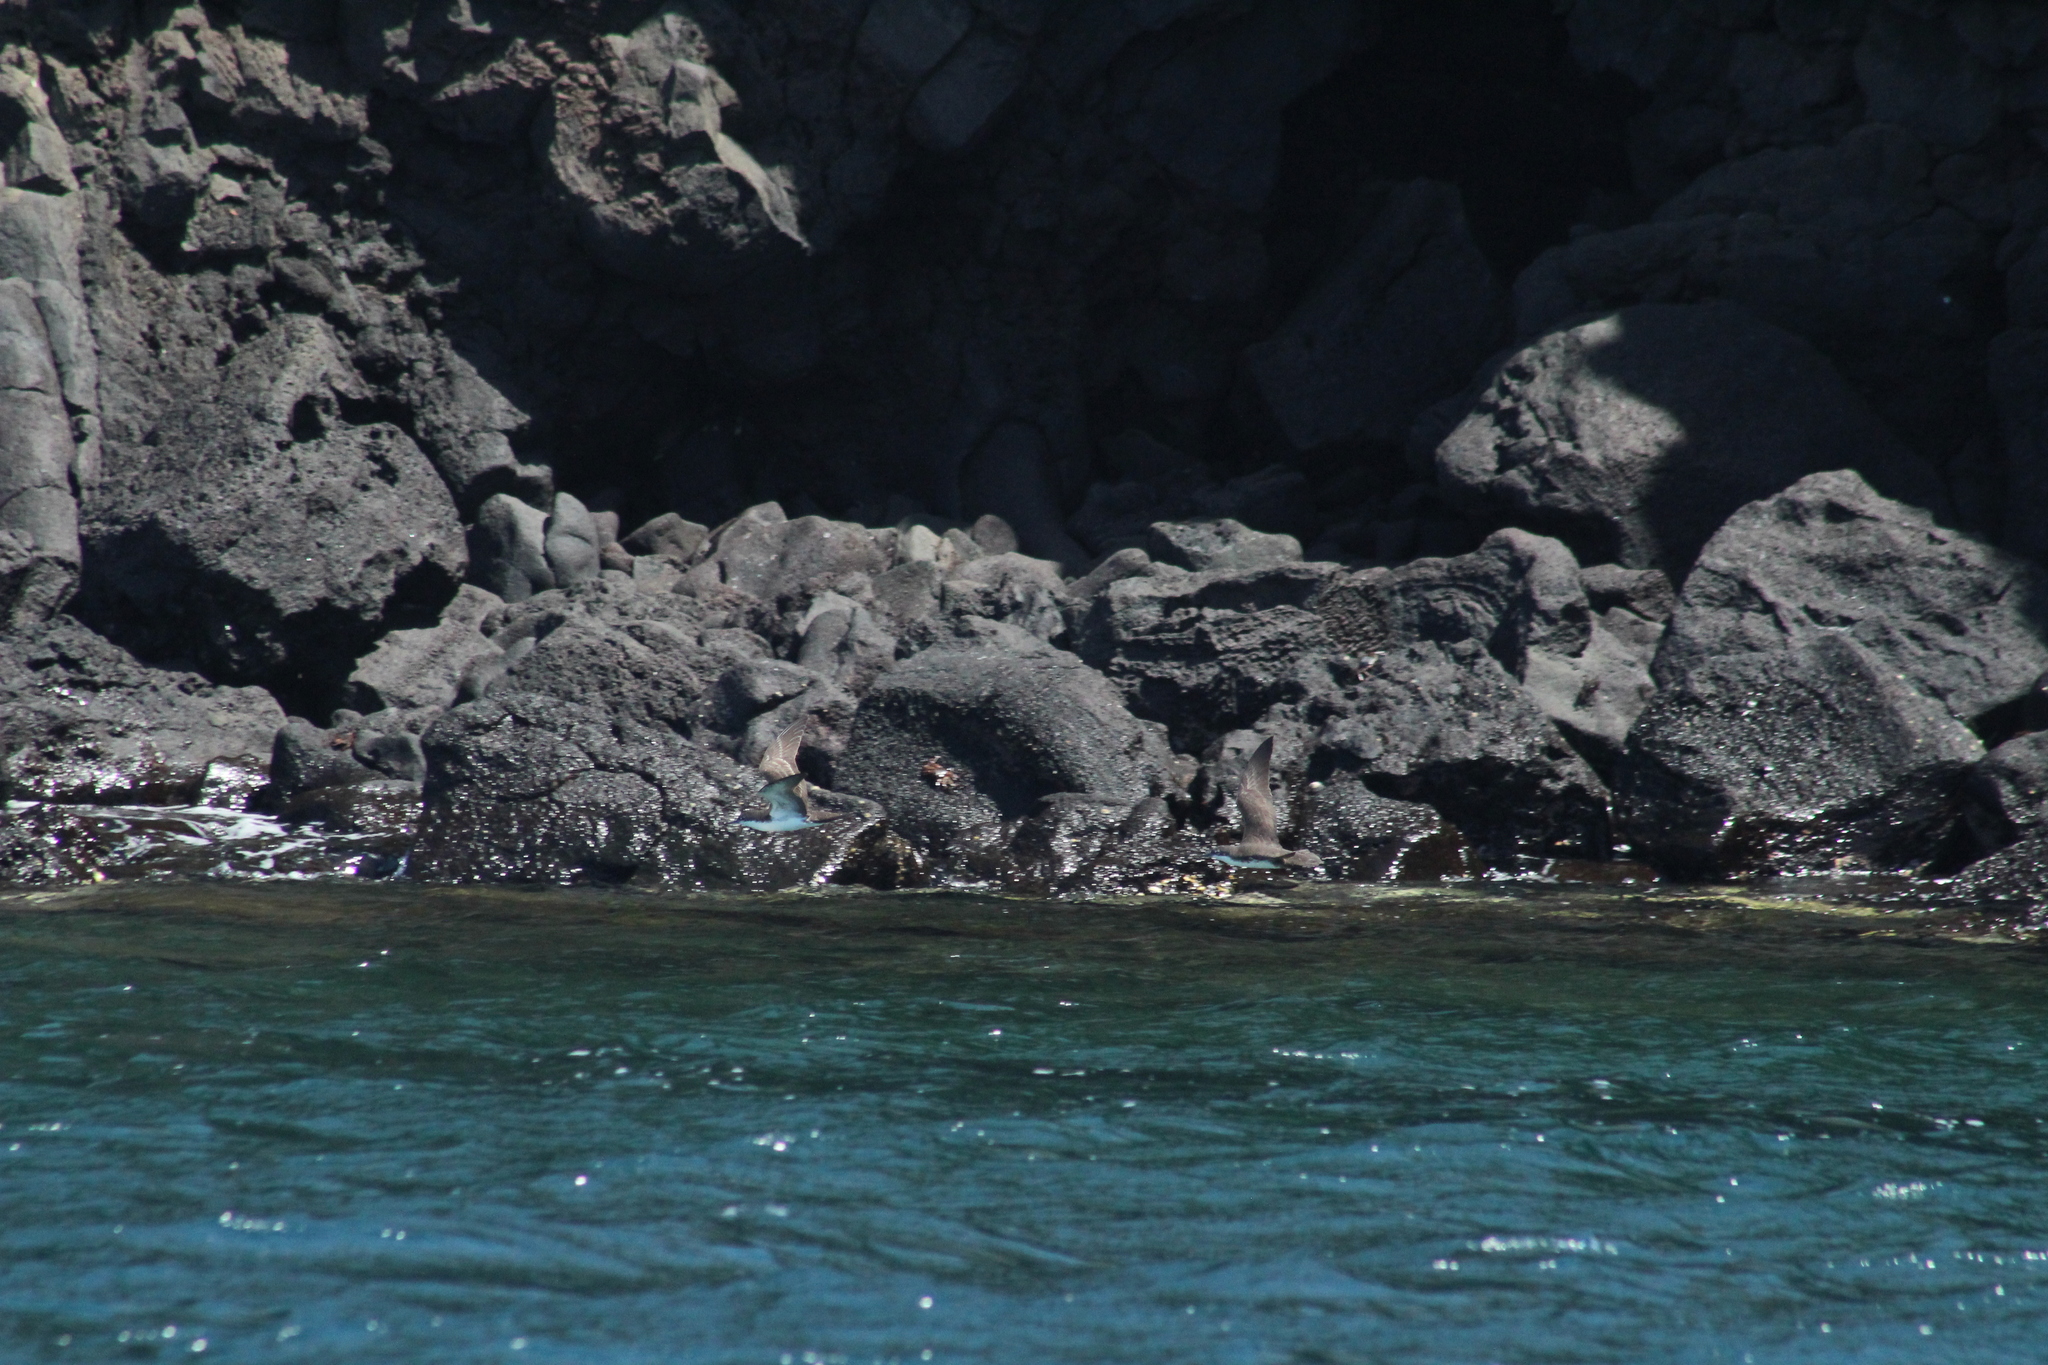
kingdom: Animalia
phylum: Chordata
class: Aves
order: Procellariiformes
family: Procellariidae
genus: Puffinus
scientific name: Puffinus subalaris
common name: Galapagos shearwater
